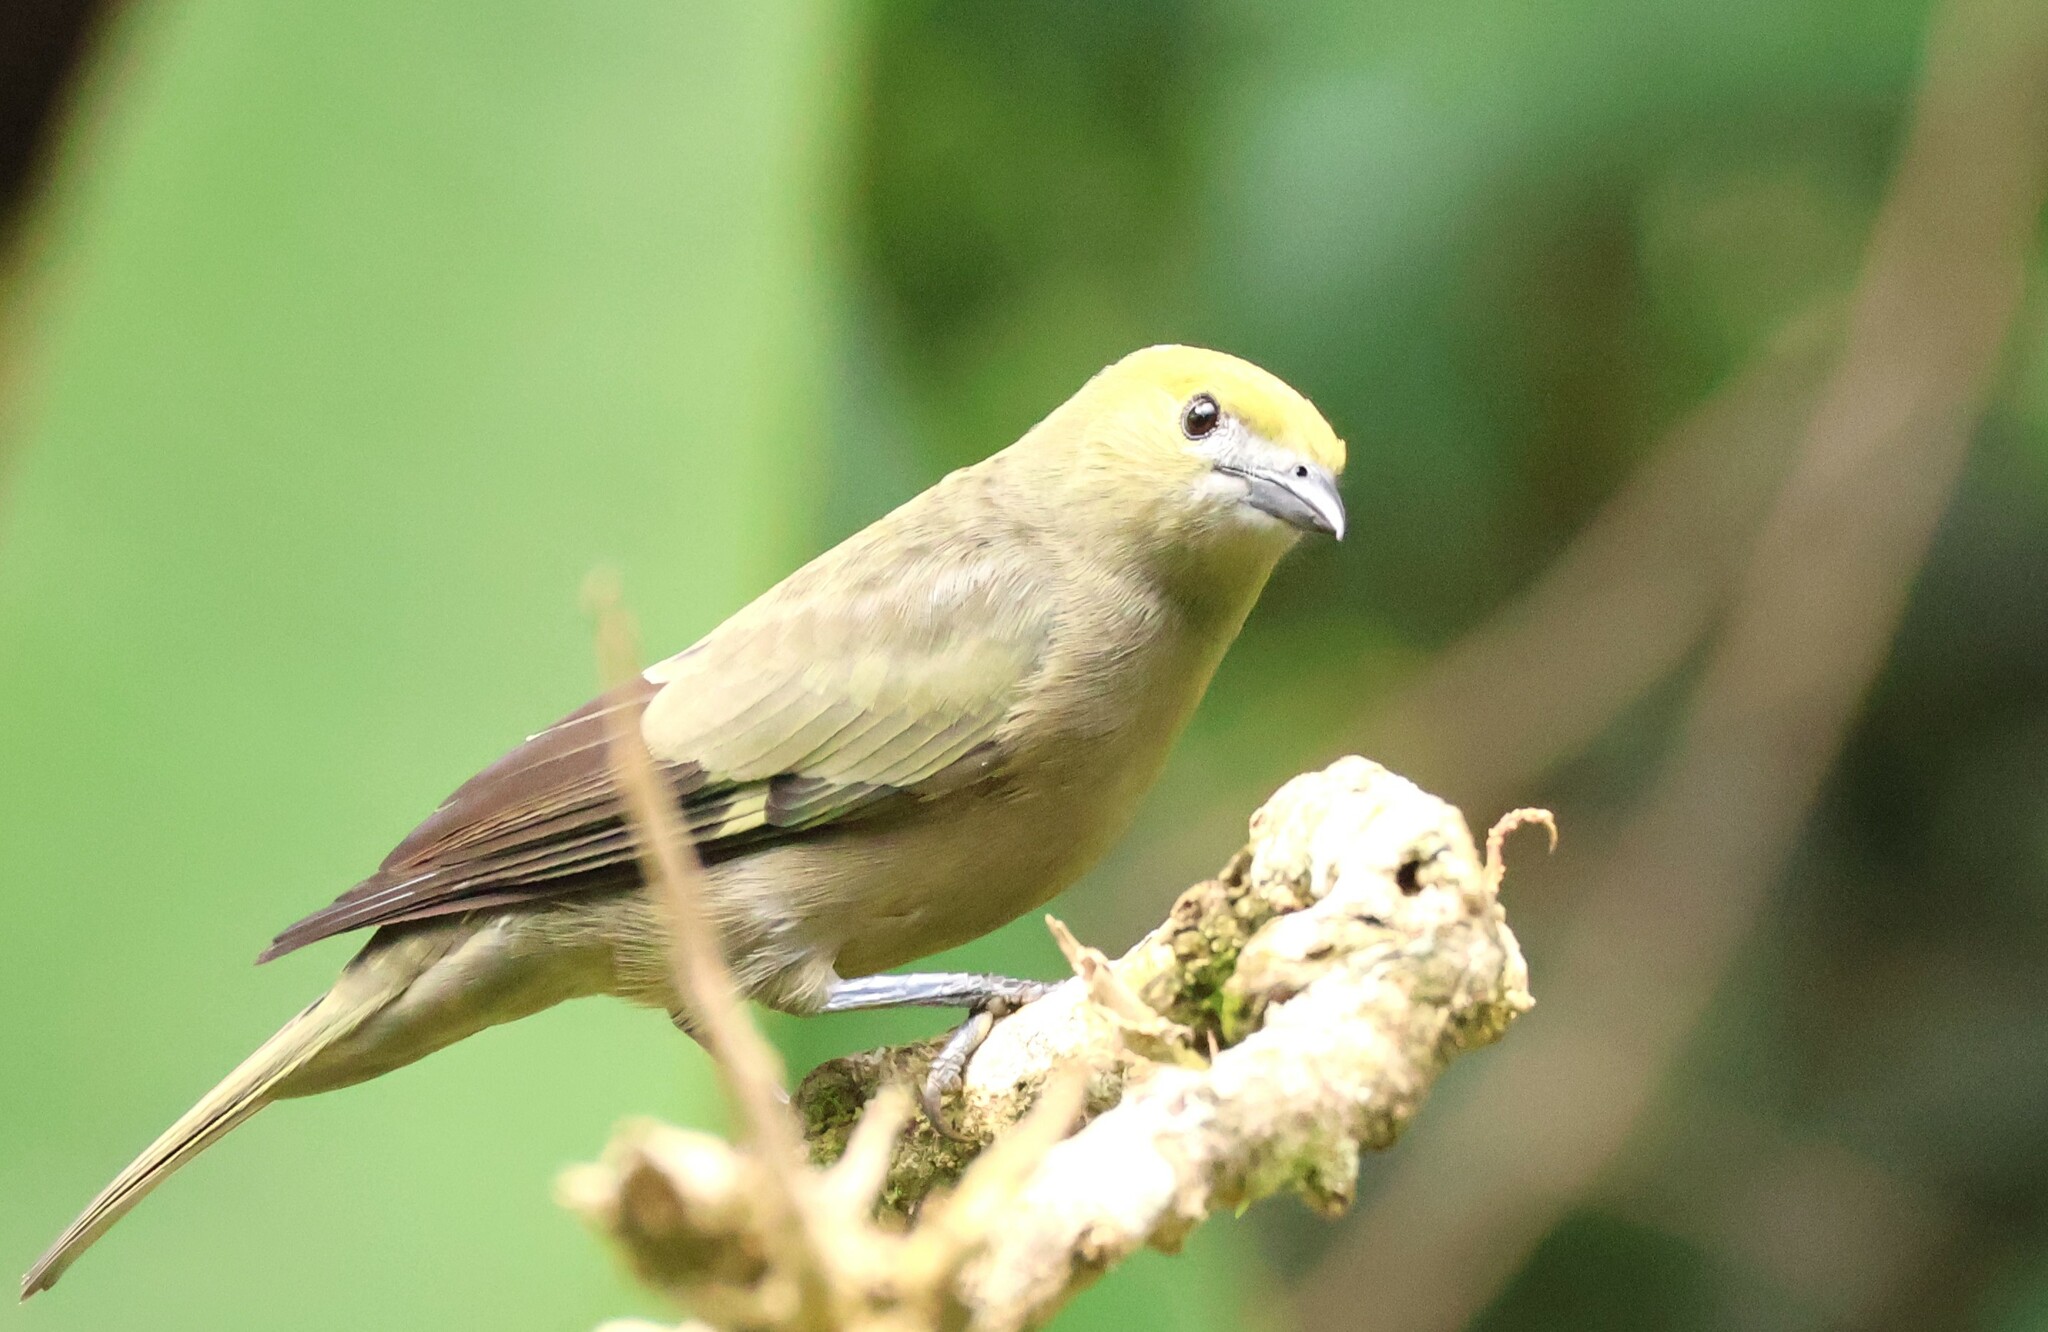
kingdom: Animalia
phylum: Chordata
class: Aves
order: Passeriformes
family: Thraupidae
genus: Thraupis
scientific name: Thraupis palmarum
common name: Palm tanager
